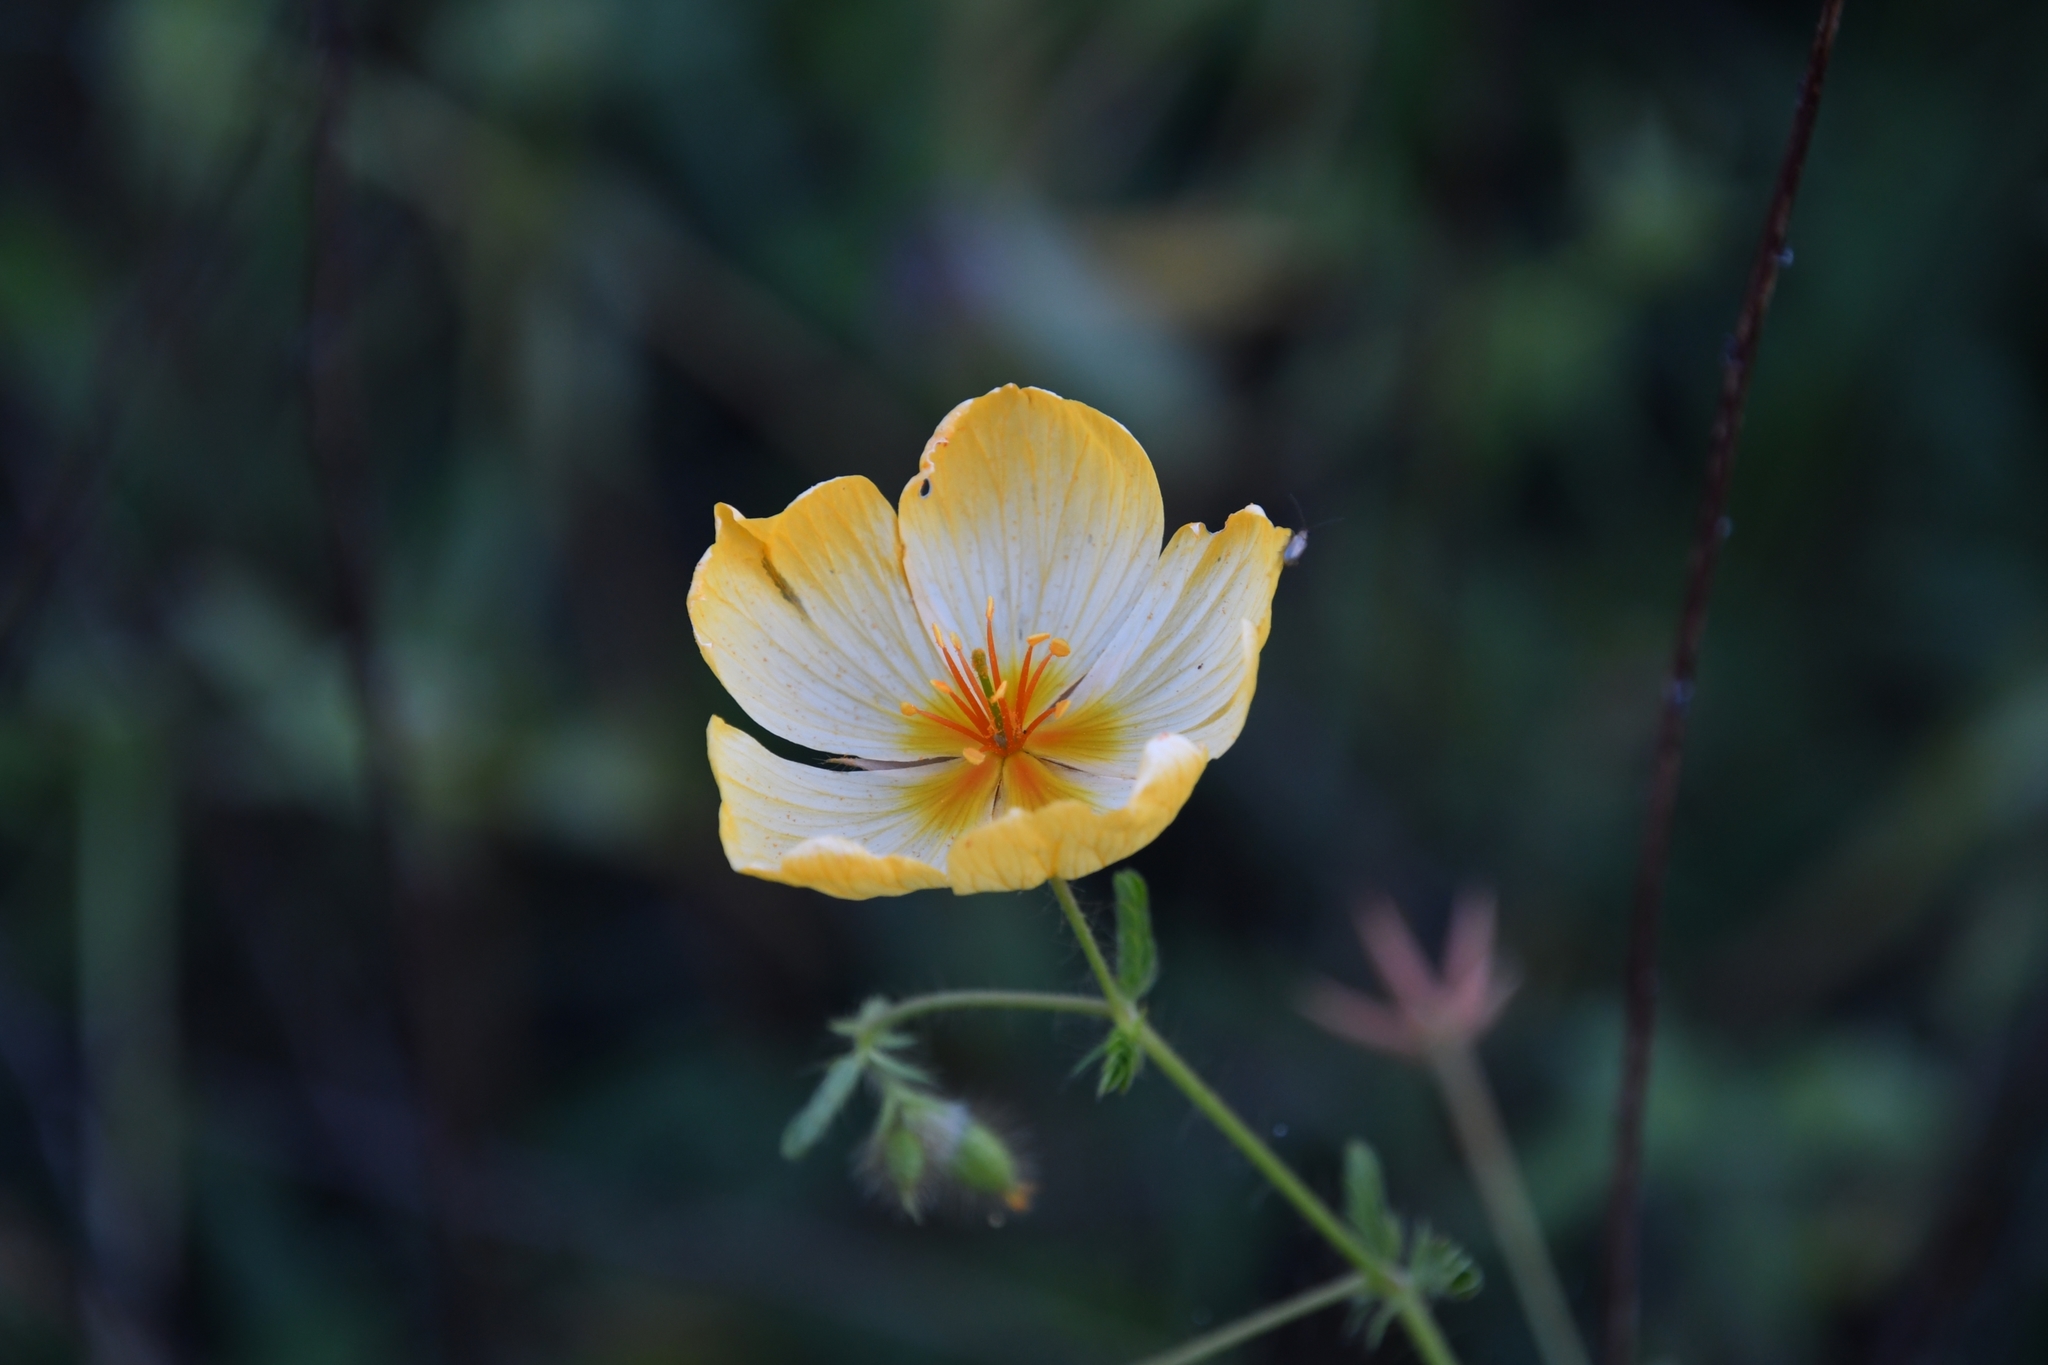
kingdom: Plantae
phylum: Tracheophyta
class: Magnoliopsida
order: Zygophyllales
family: Zygophyllaceae
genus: Kallstroemia
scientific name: Kallstroemia grandiflora
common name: Arizona-poppy
